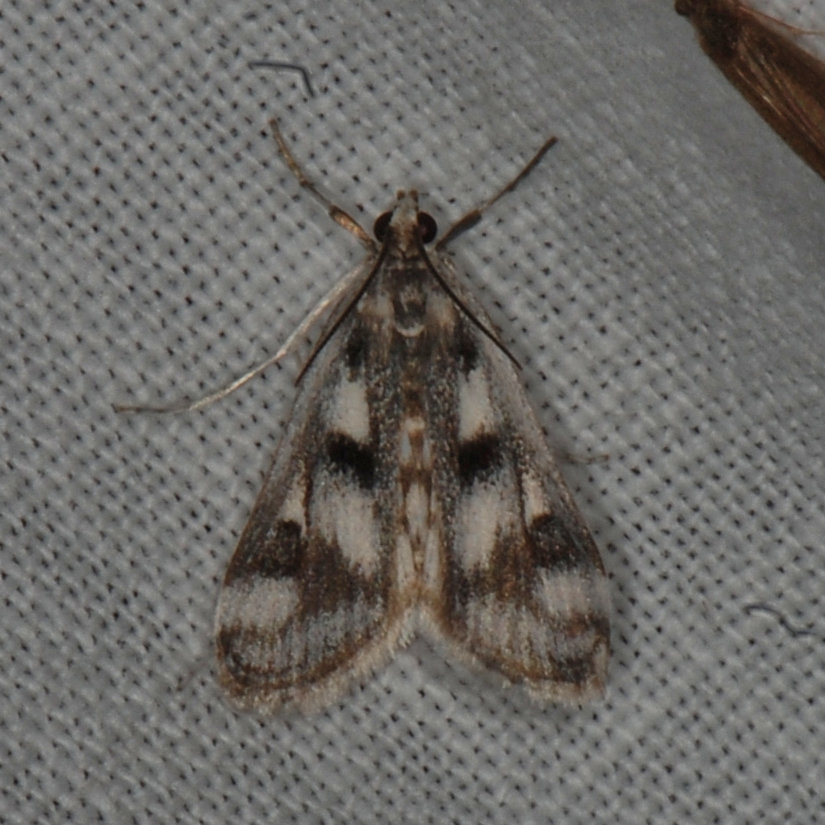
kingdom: Animalia
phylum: Arthropoda
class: Insecta
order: Lepidoptera
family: Crambidae
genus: Parapoynx
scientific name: Parapoynx maculalis
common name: Polymorphic pondweed moth
